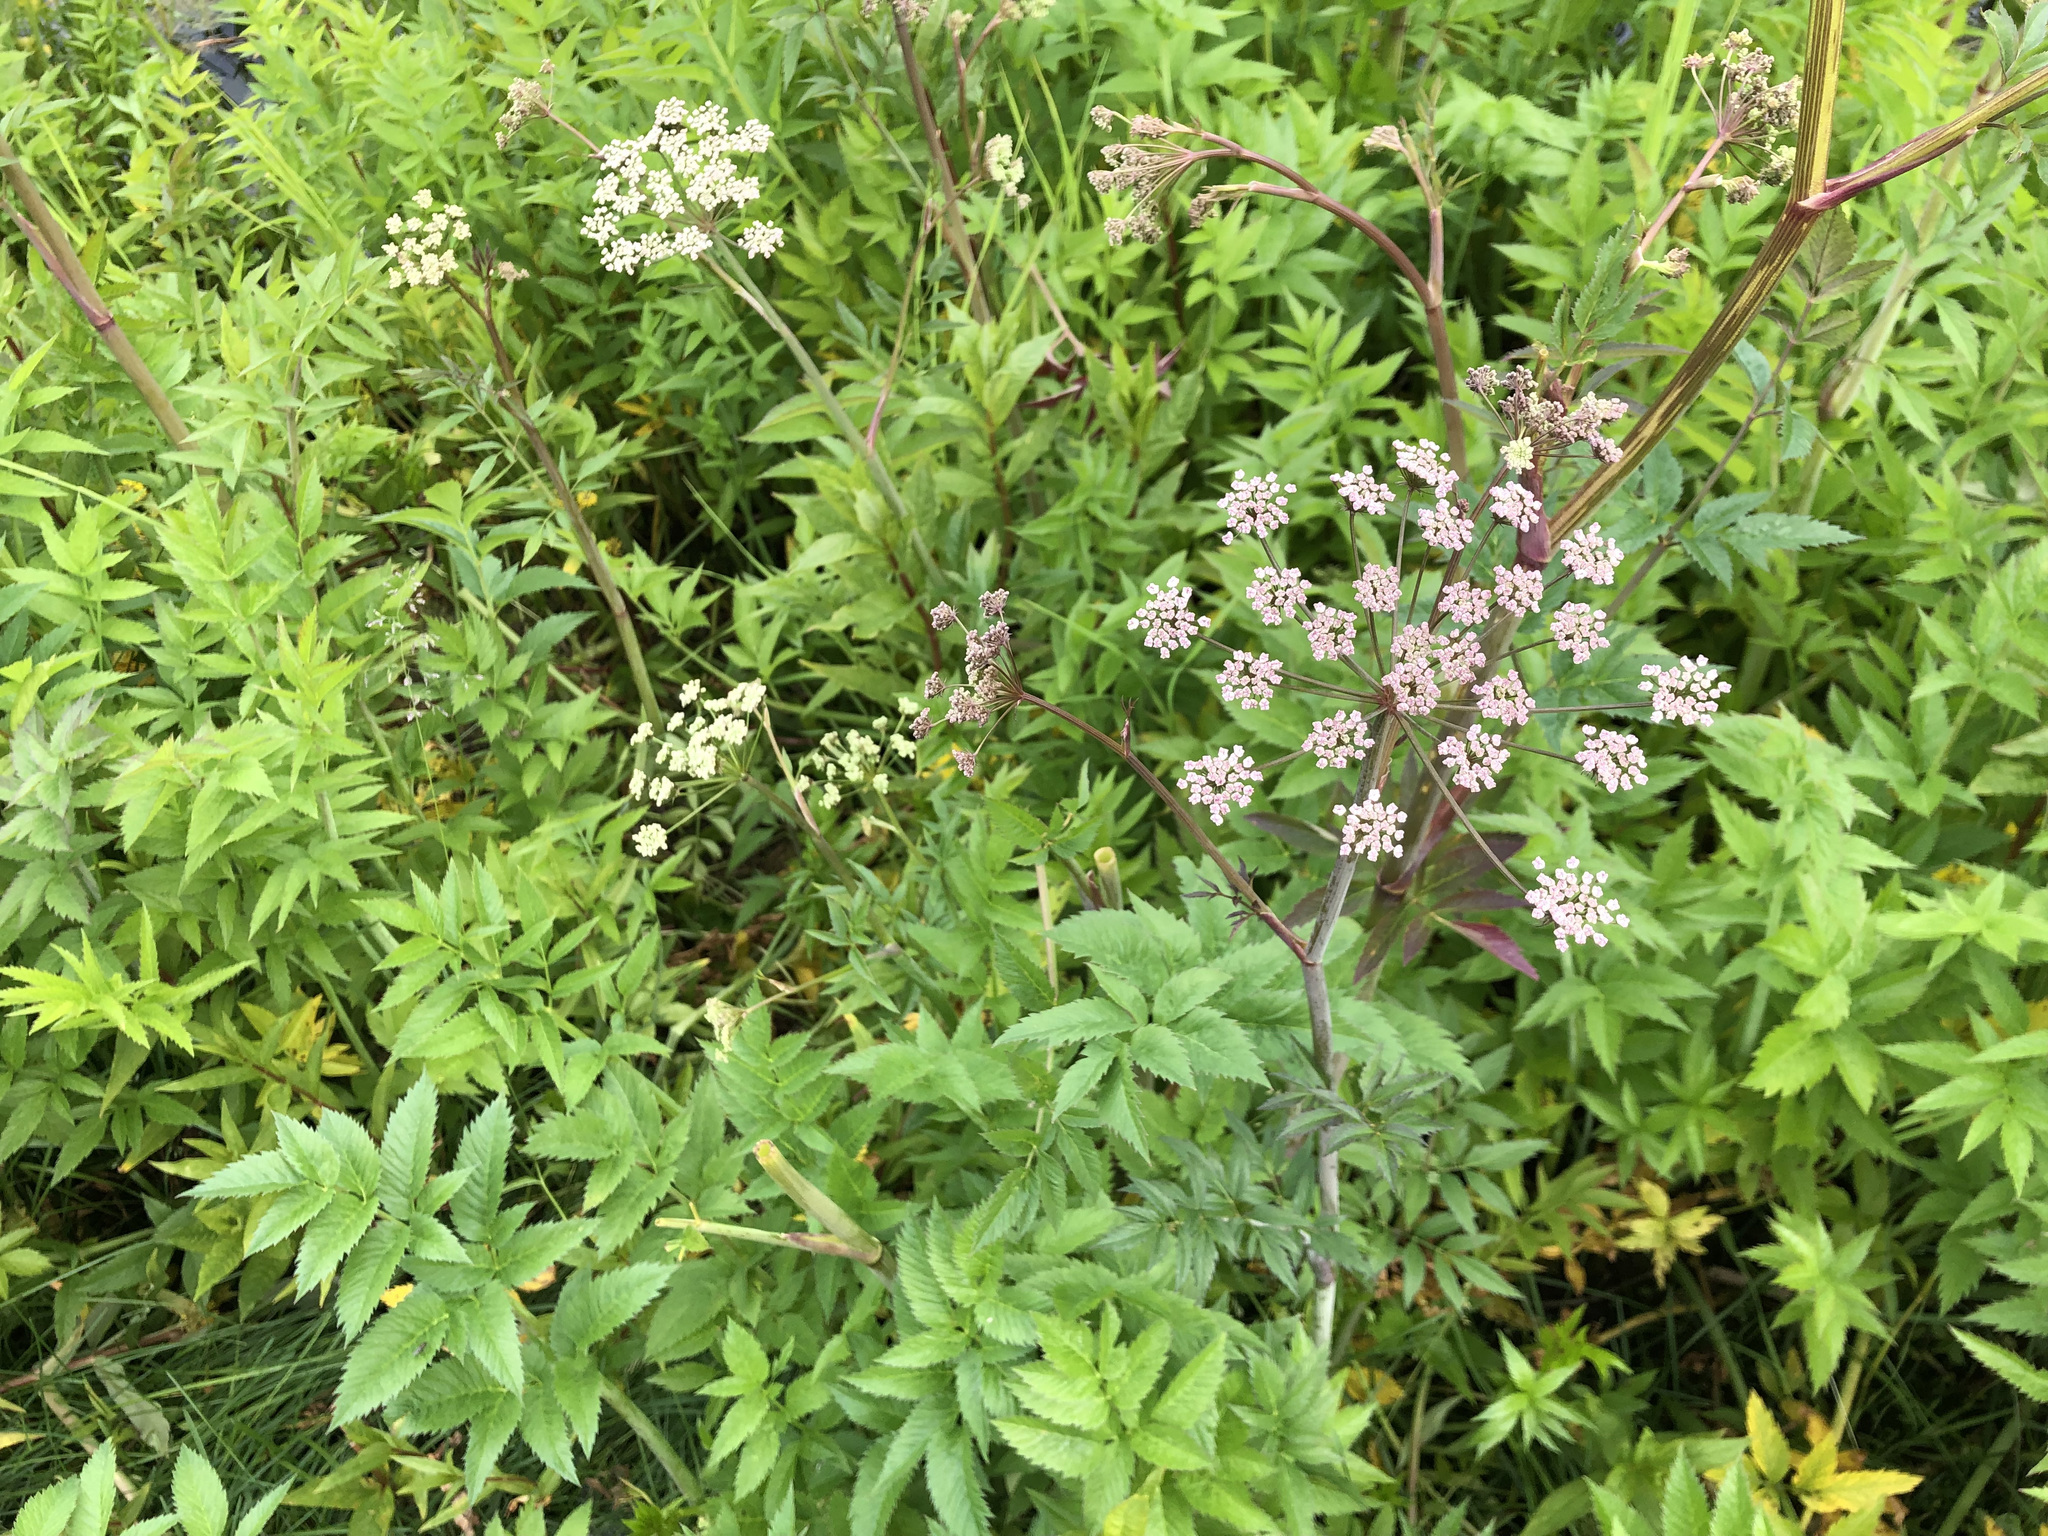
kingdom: Plantae
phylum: Tracheophyta
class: Magnoliopsida
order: Apiales
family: Apiaceae
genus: Angelica
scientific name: Angelica genuflexa
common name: Kneeling angelica
